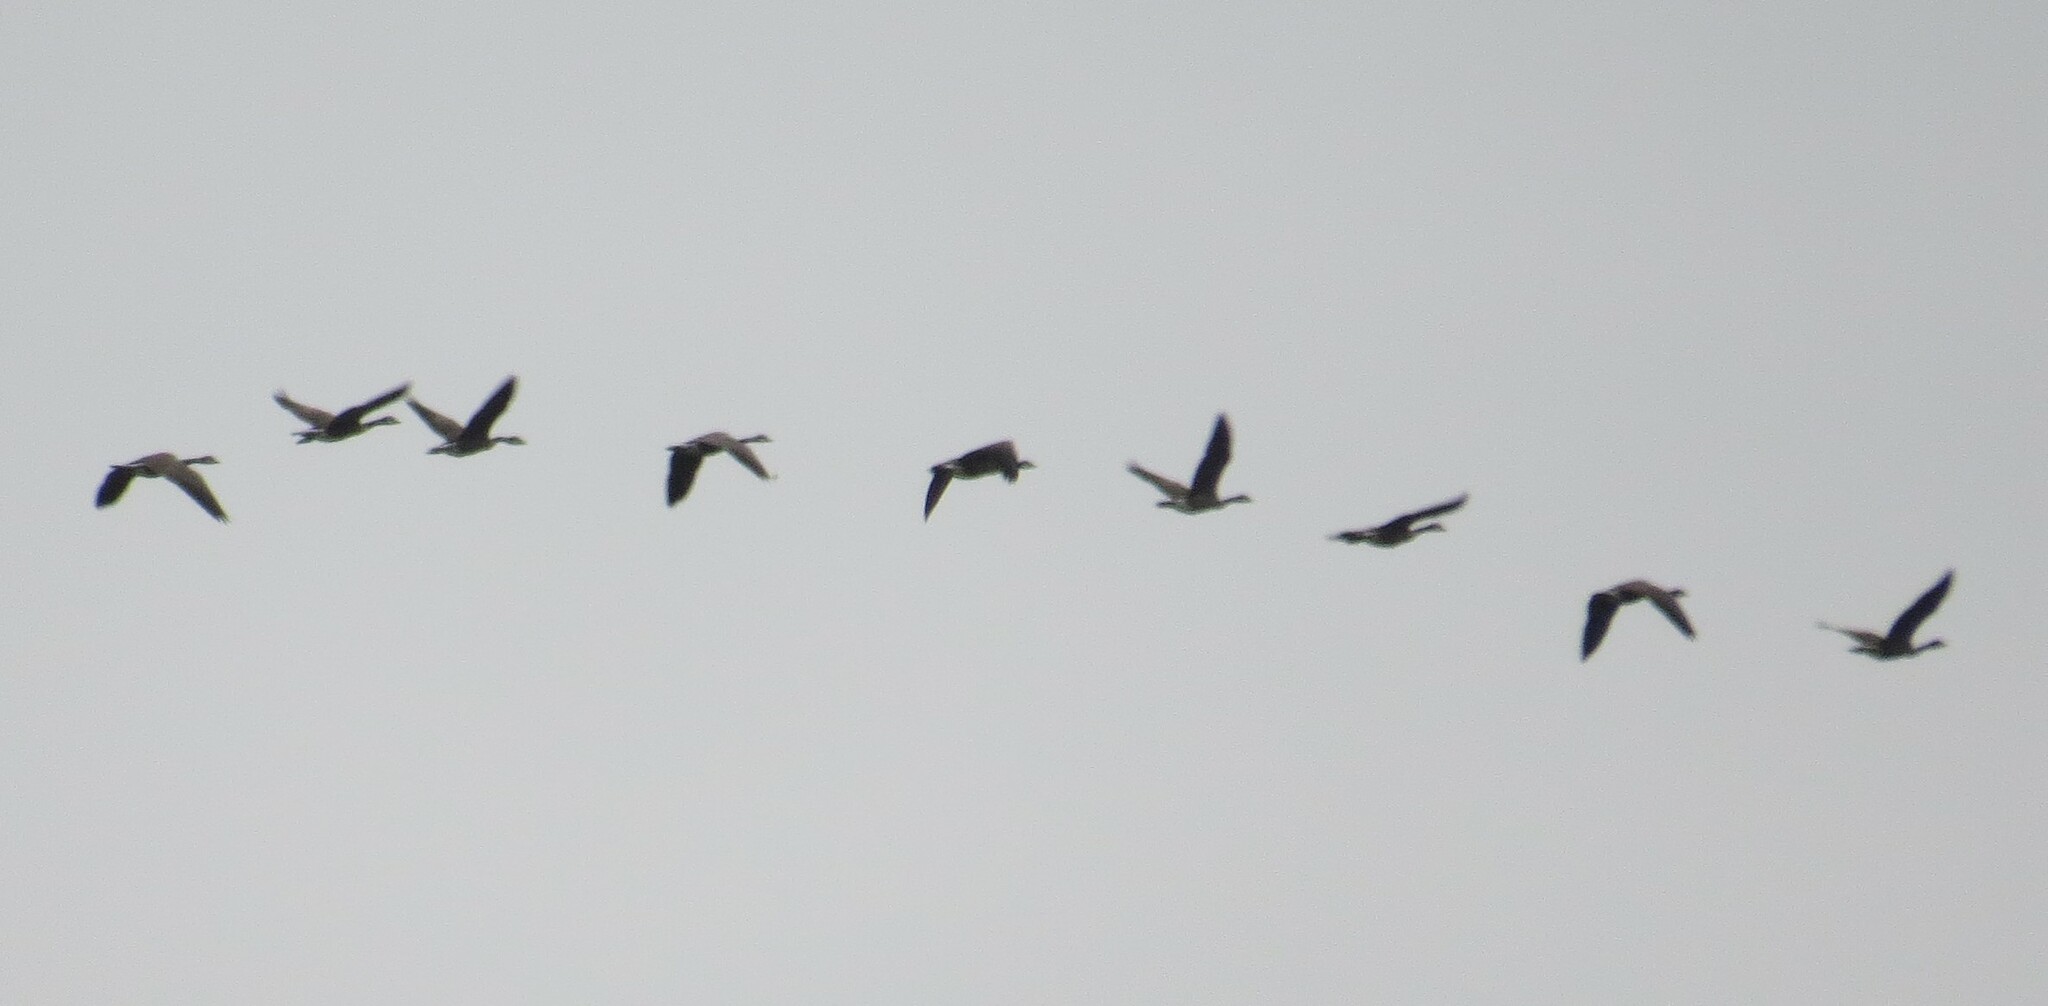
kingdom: Animalia
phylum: Chordata
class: Aves
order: Anseriformes
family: Anatidae
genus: Branta
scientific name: Branta canadensis
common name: Canada goose
